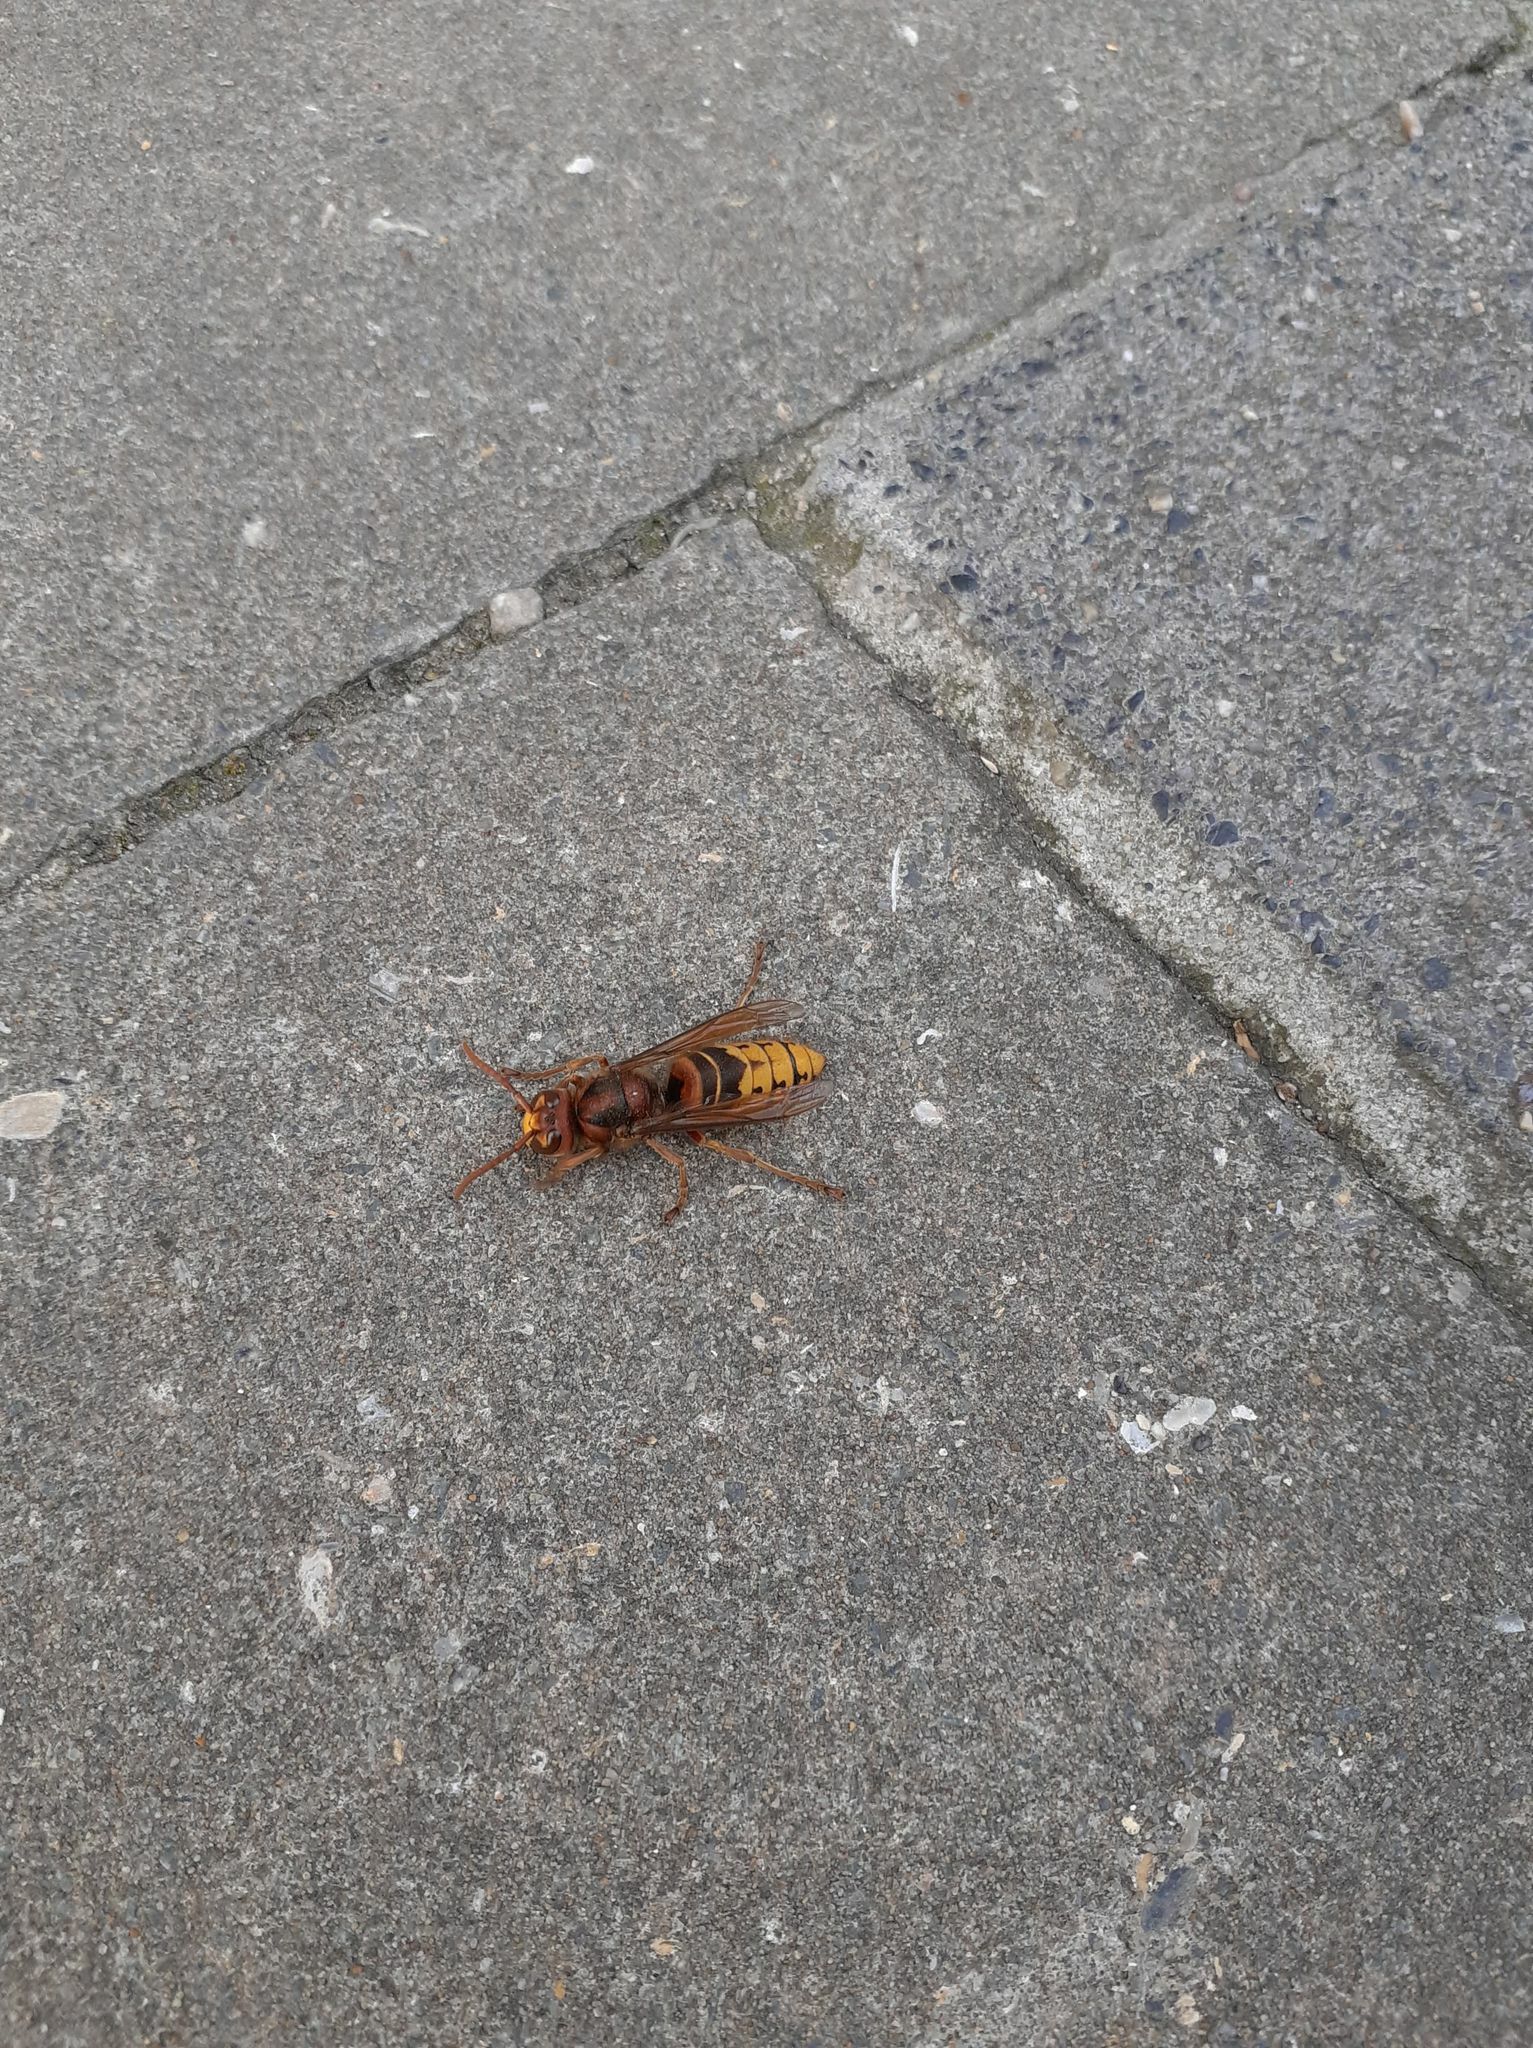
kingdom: Animalia
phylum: Arthropoda
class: Insecta
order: Hymenoptera
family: Vespidae
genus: Vespa
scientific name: Vespa crabro
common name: Hornet
